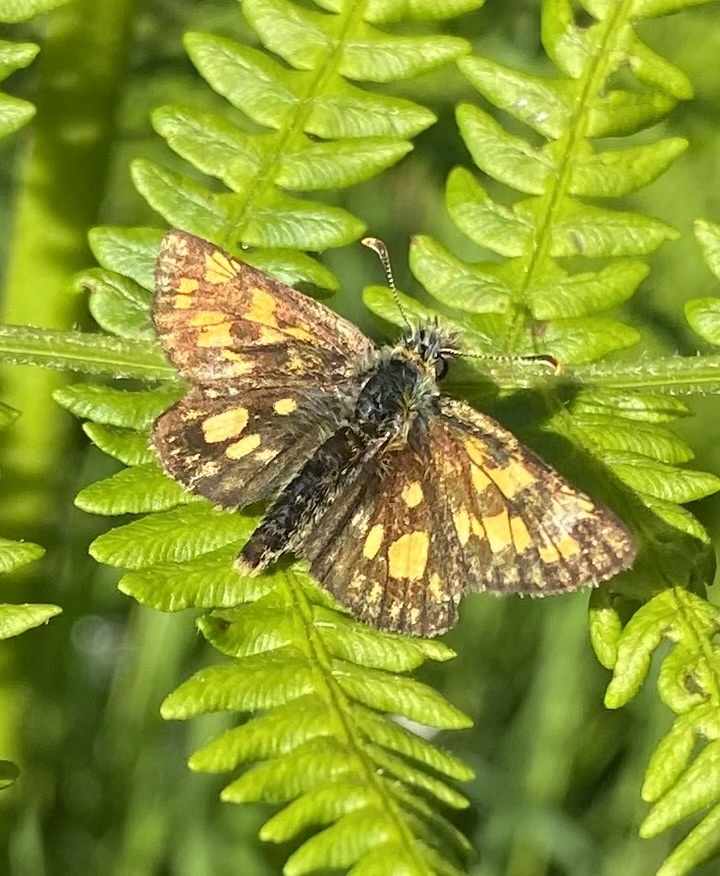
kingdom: Animalia
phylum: Arthropoda
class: Insecta
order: Lepidoptera
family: Hesperiidae
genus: Carterocephalus
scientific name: Carterocephalus palaemon
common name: Chequered skipper
